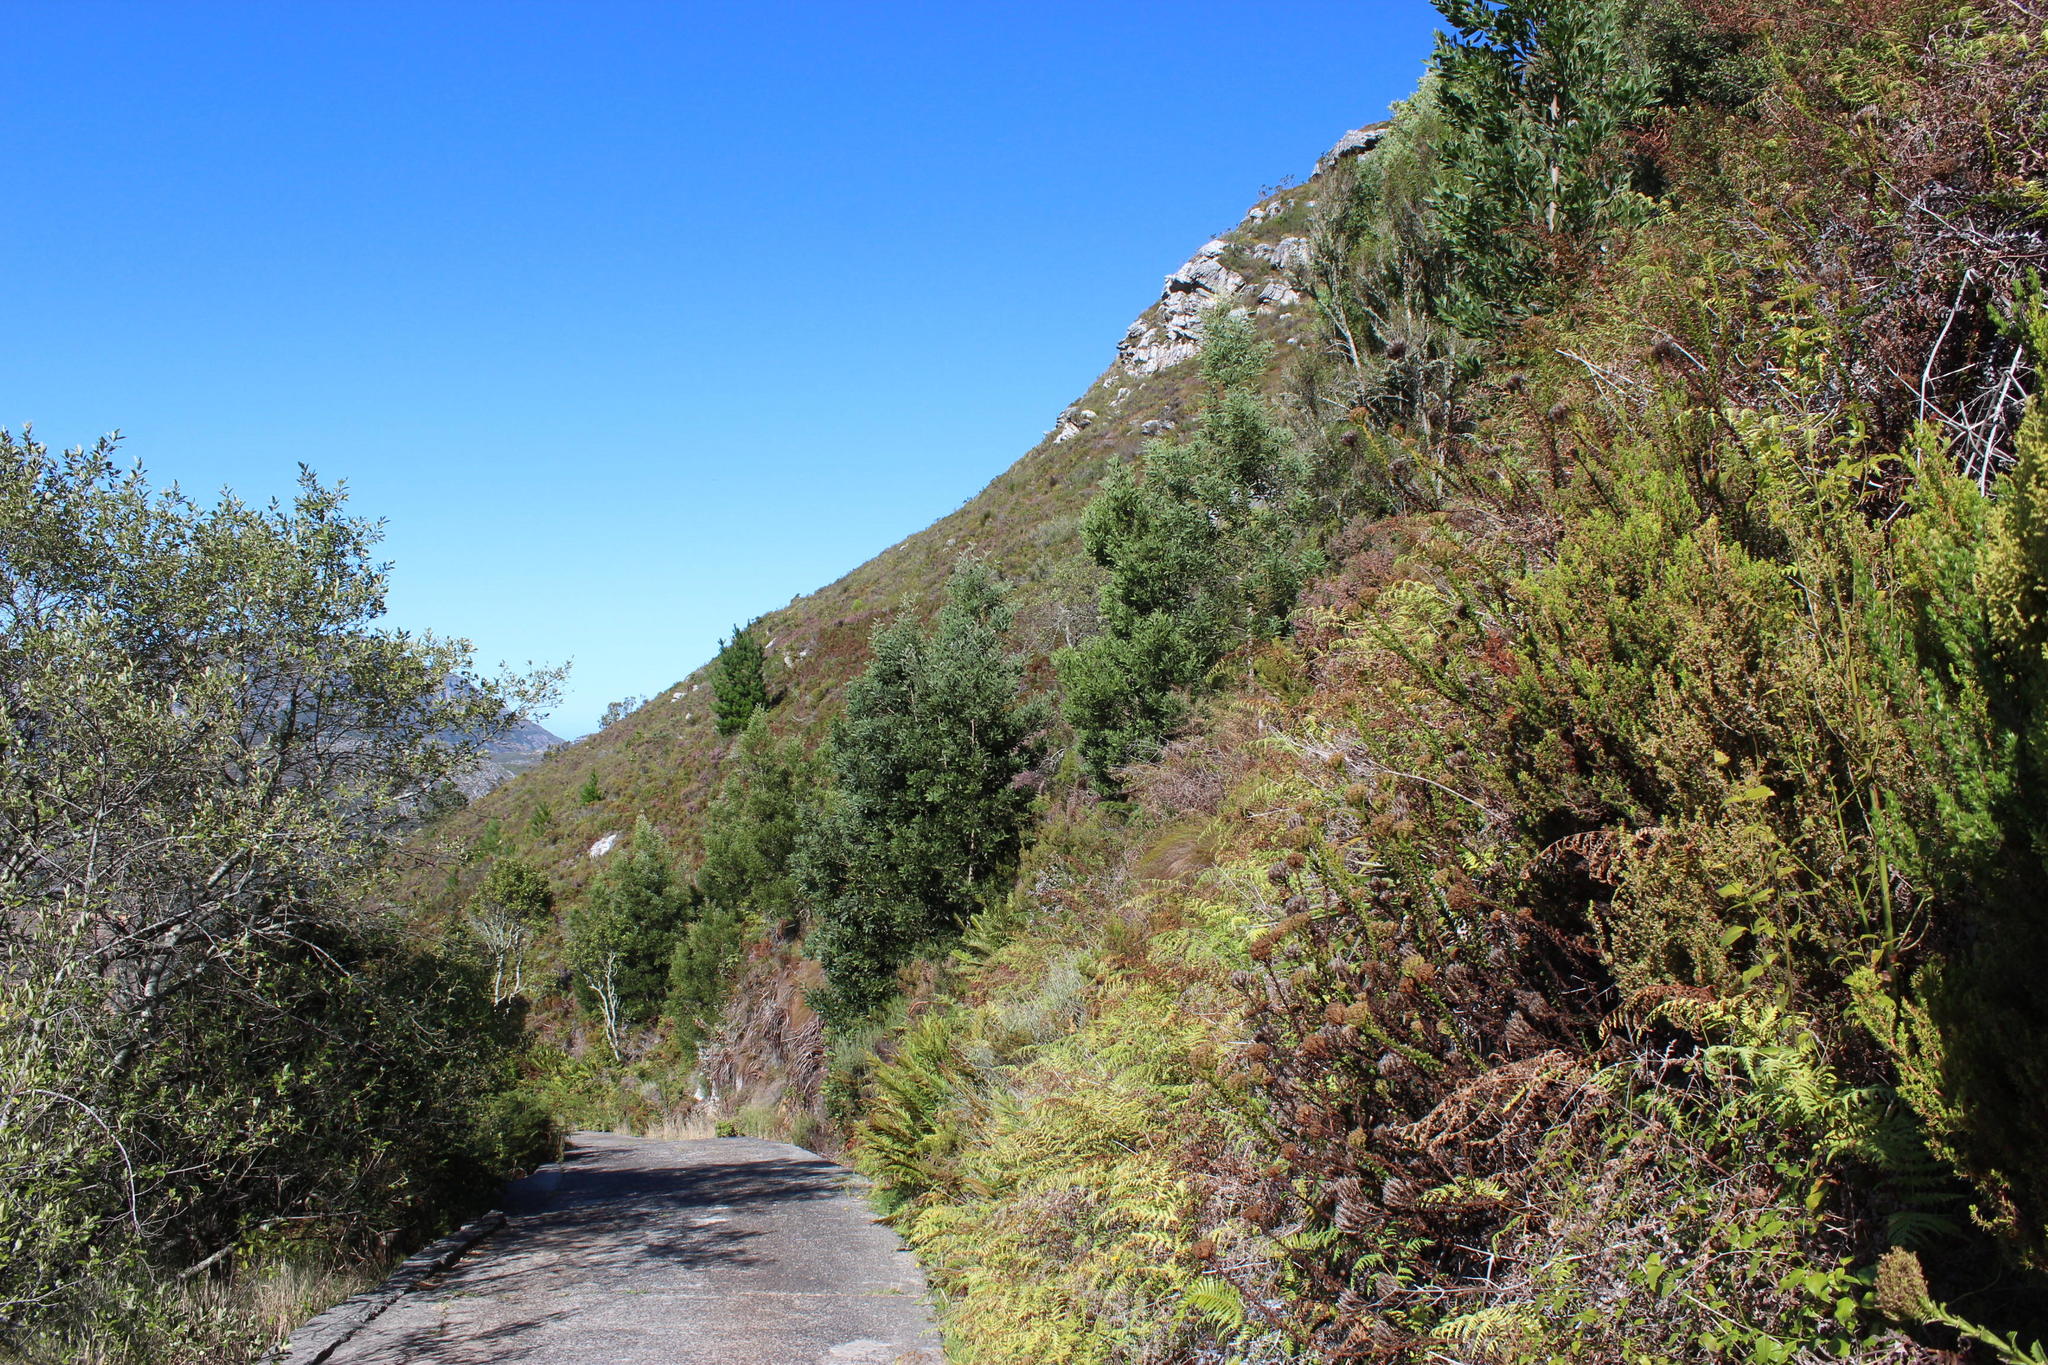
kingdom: Plantae
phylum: Tracheophyta
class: Magnoliopsida
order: Fabales
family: Fabaceae
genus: Acacia
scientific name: Acacia melanoxylon
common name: Blackwood
